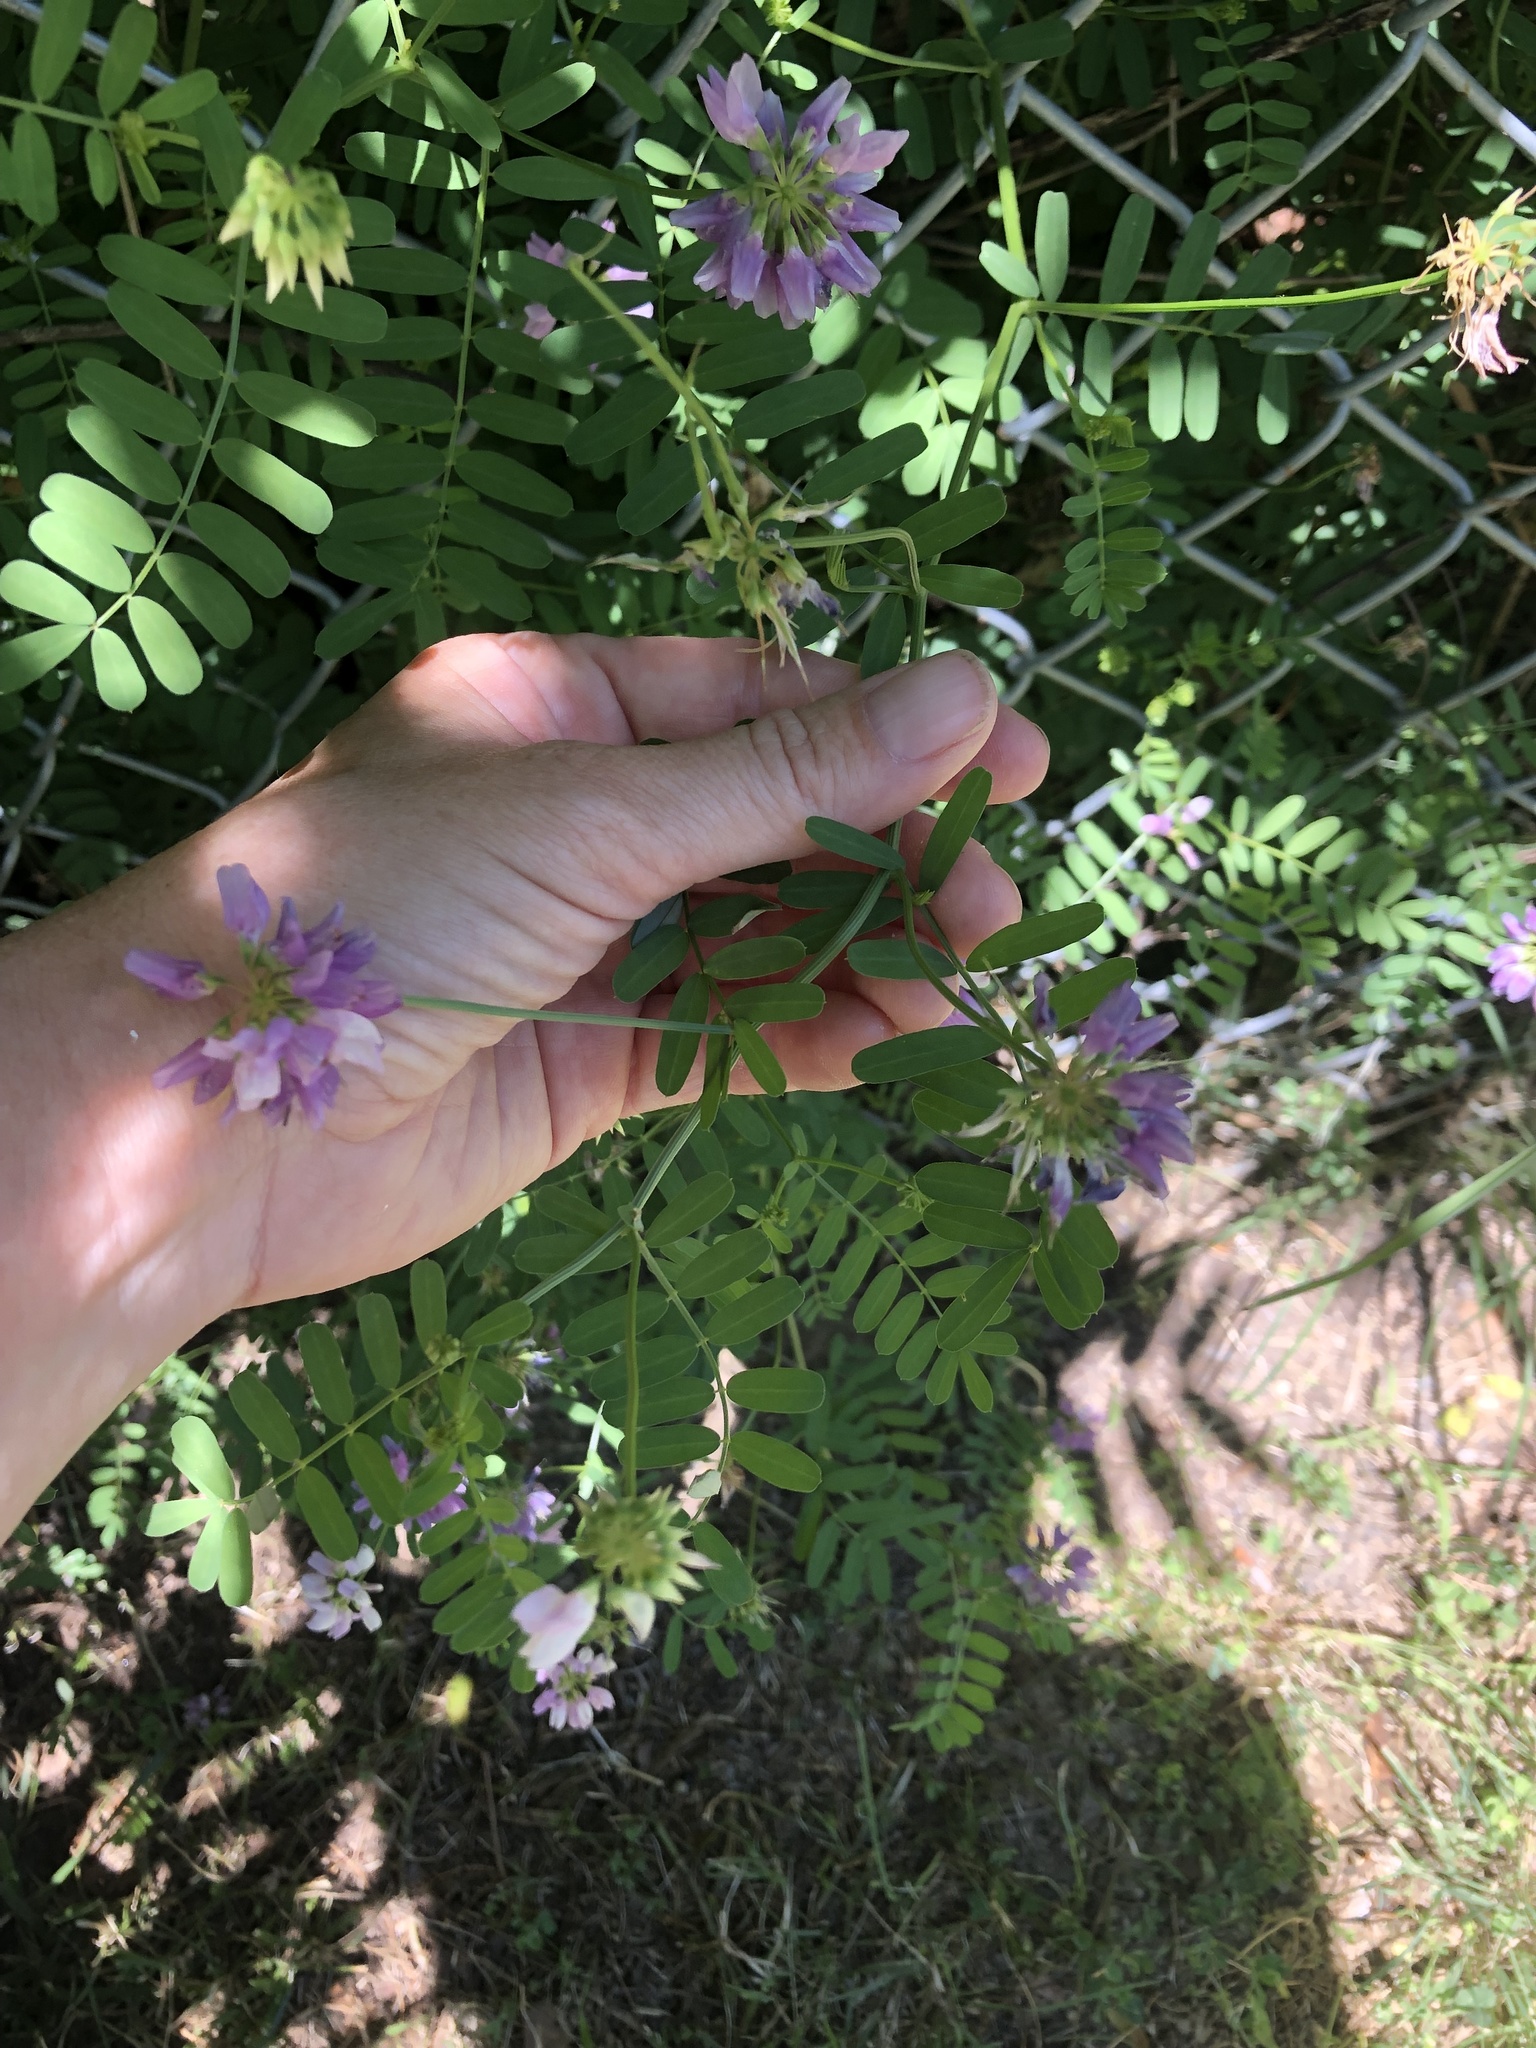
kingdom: Plantae
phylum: Tracheophyta
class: Magnoliopsida
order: Fabales
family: Fabaceae
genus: Coronilla
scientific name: Coronilla varia
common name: Crownvetch
